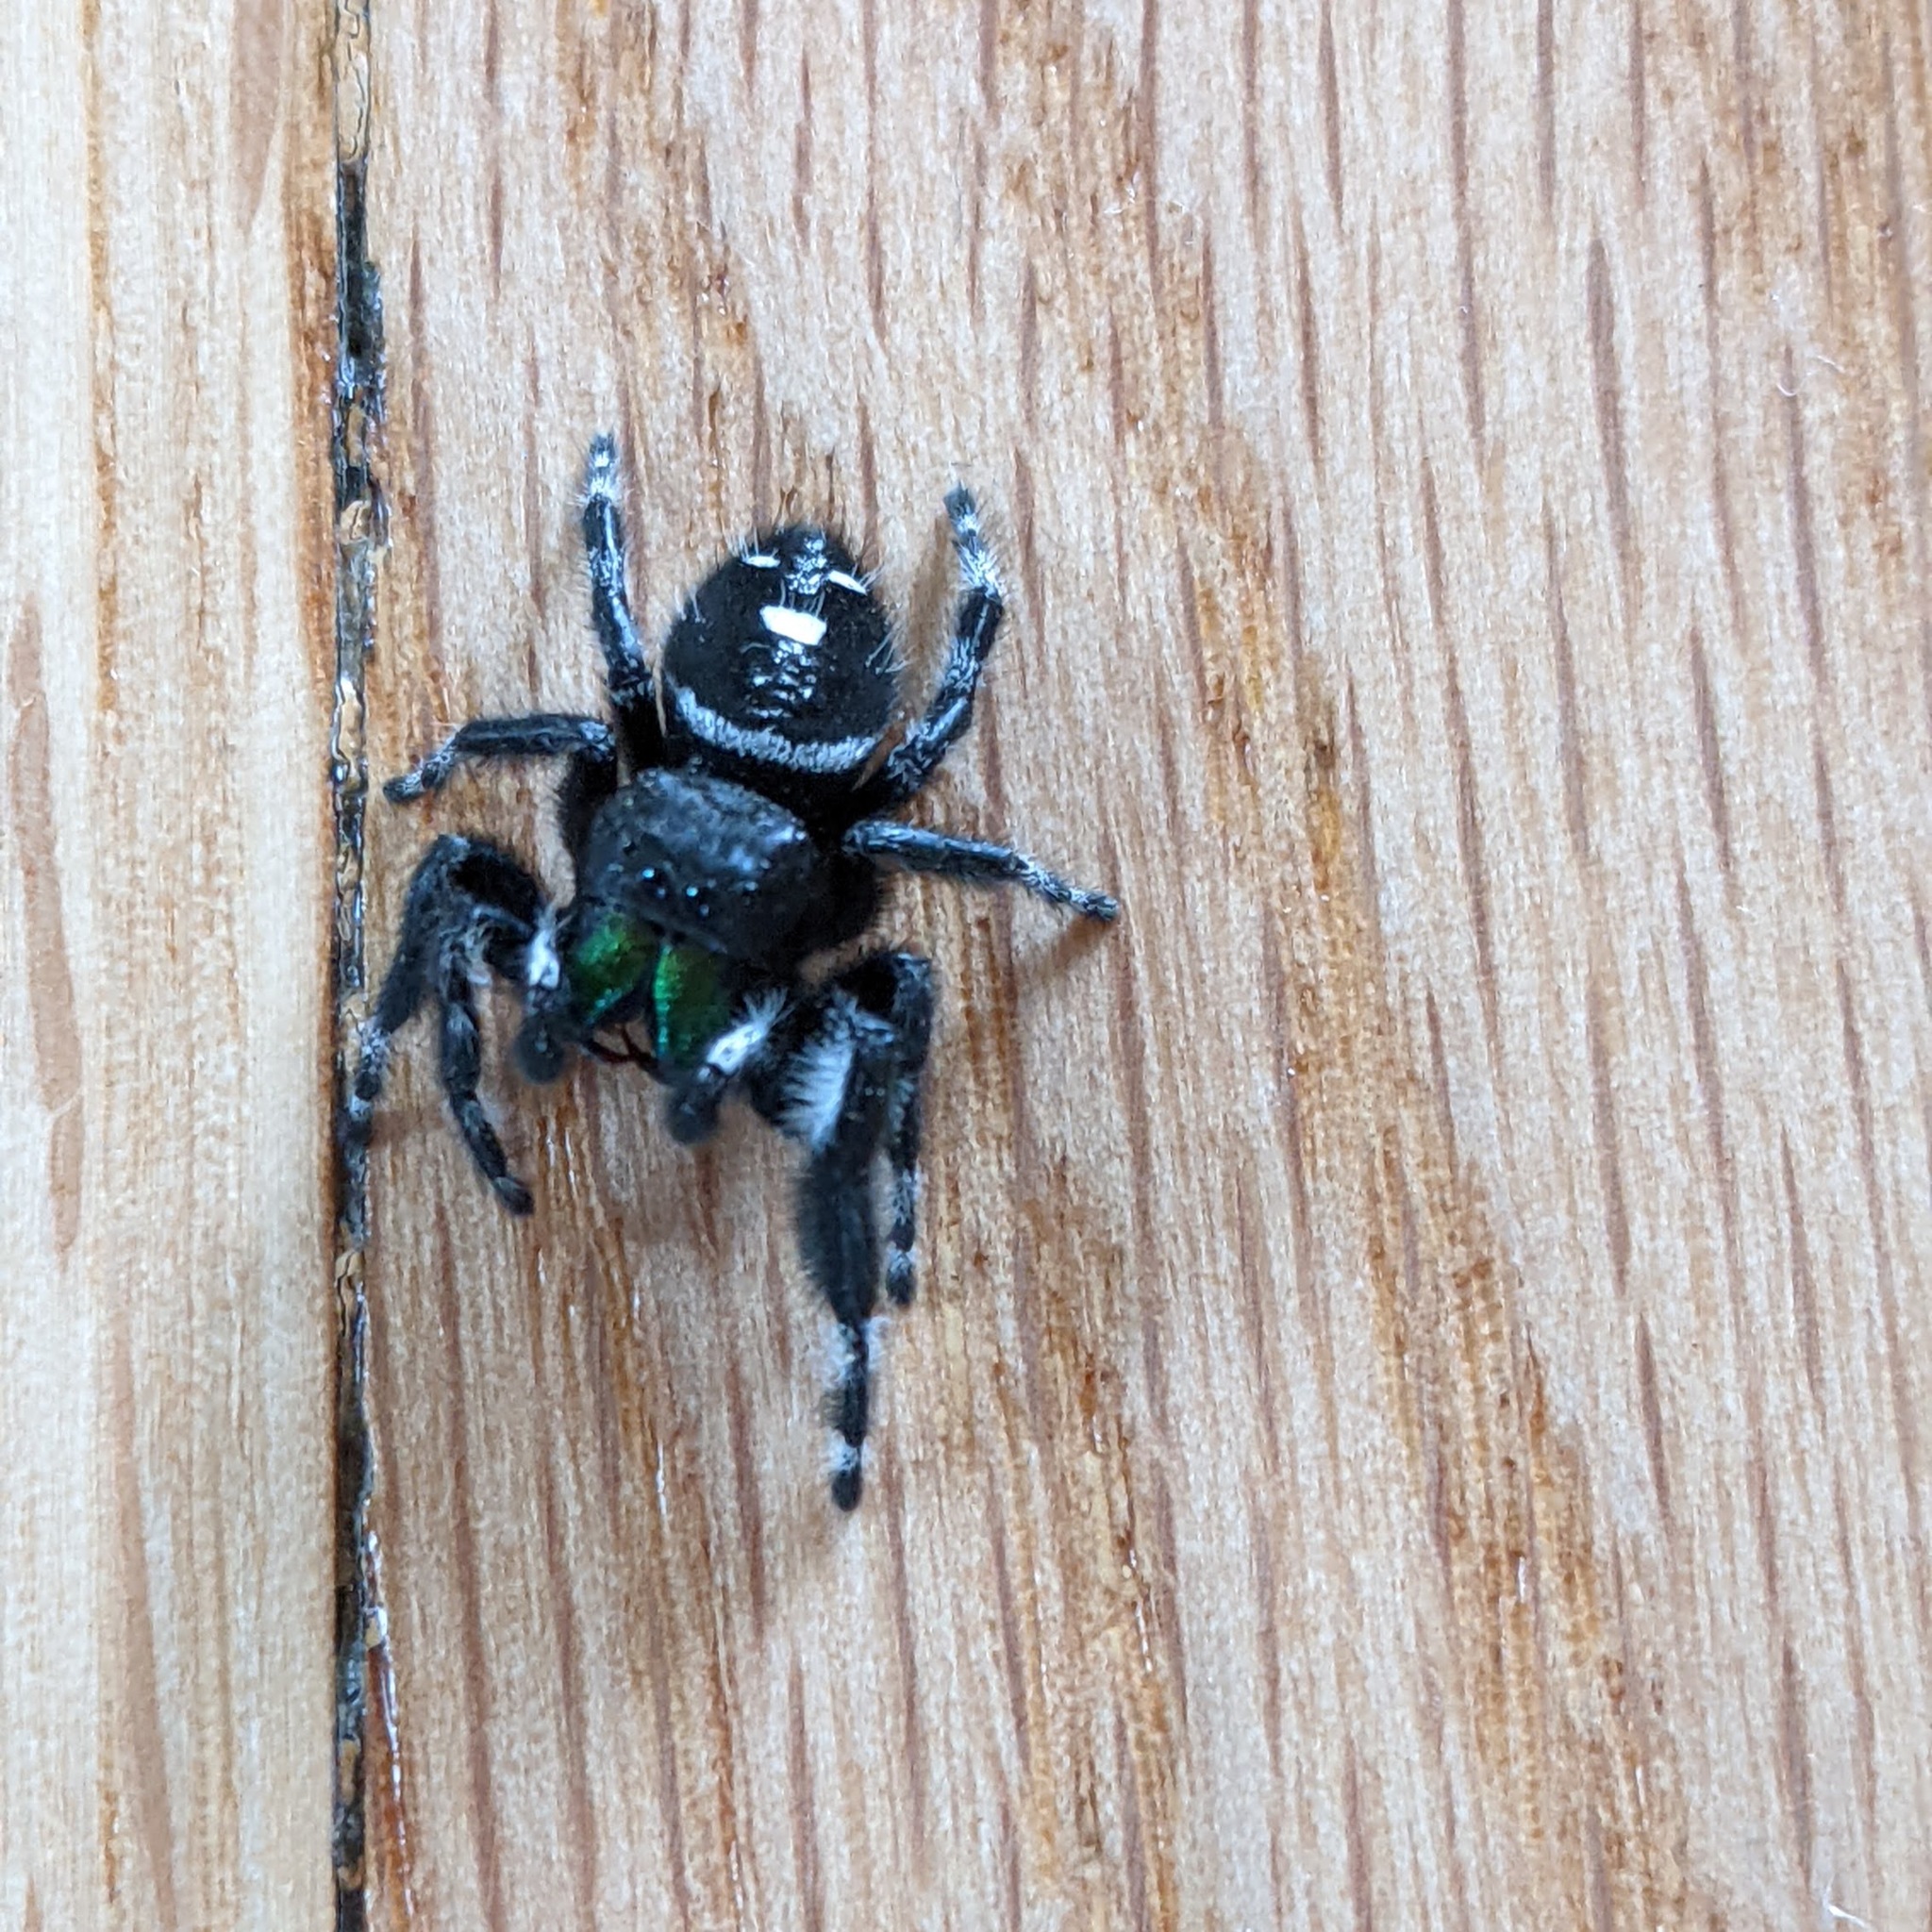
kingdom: Animalia
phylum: Arthropoda
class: Arachnida
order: Araneae
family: Salticidae
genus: Phidippus
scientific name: Phidippus audax
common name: Bold jumper
